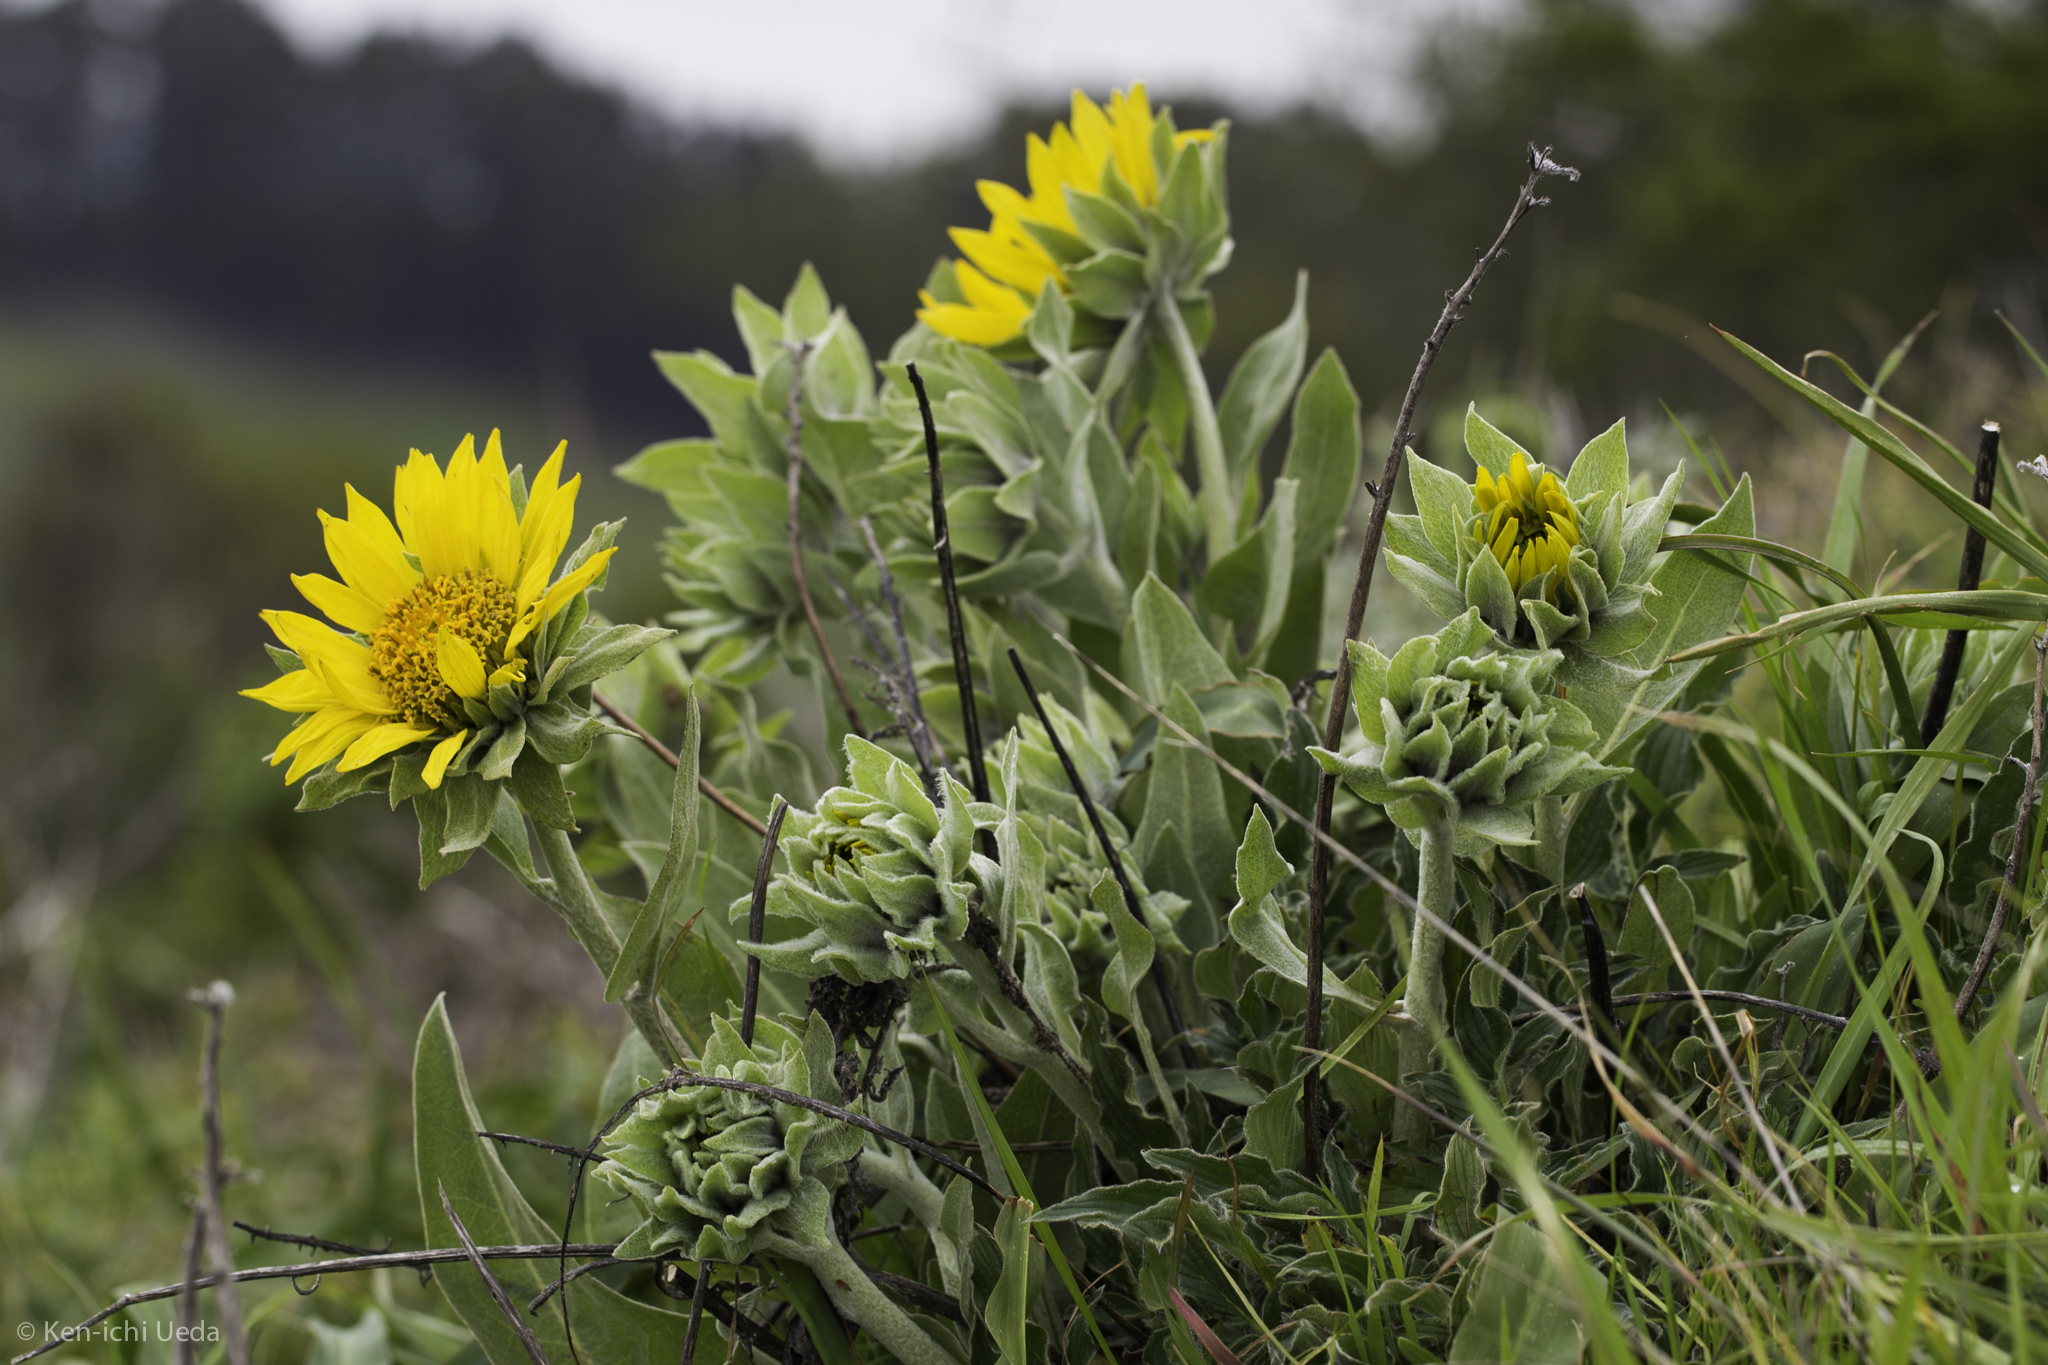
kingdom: Plantae
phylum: Tracheophyta
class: Magnoliopsida
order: Asterales
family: Asteraceae
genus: Wyethia
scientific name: Wyethia helenioides
